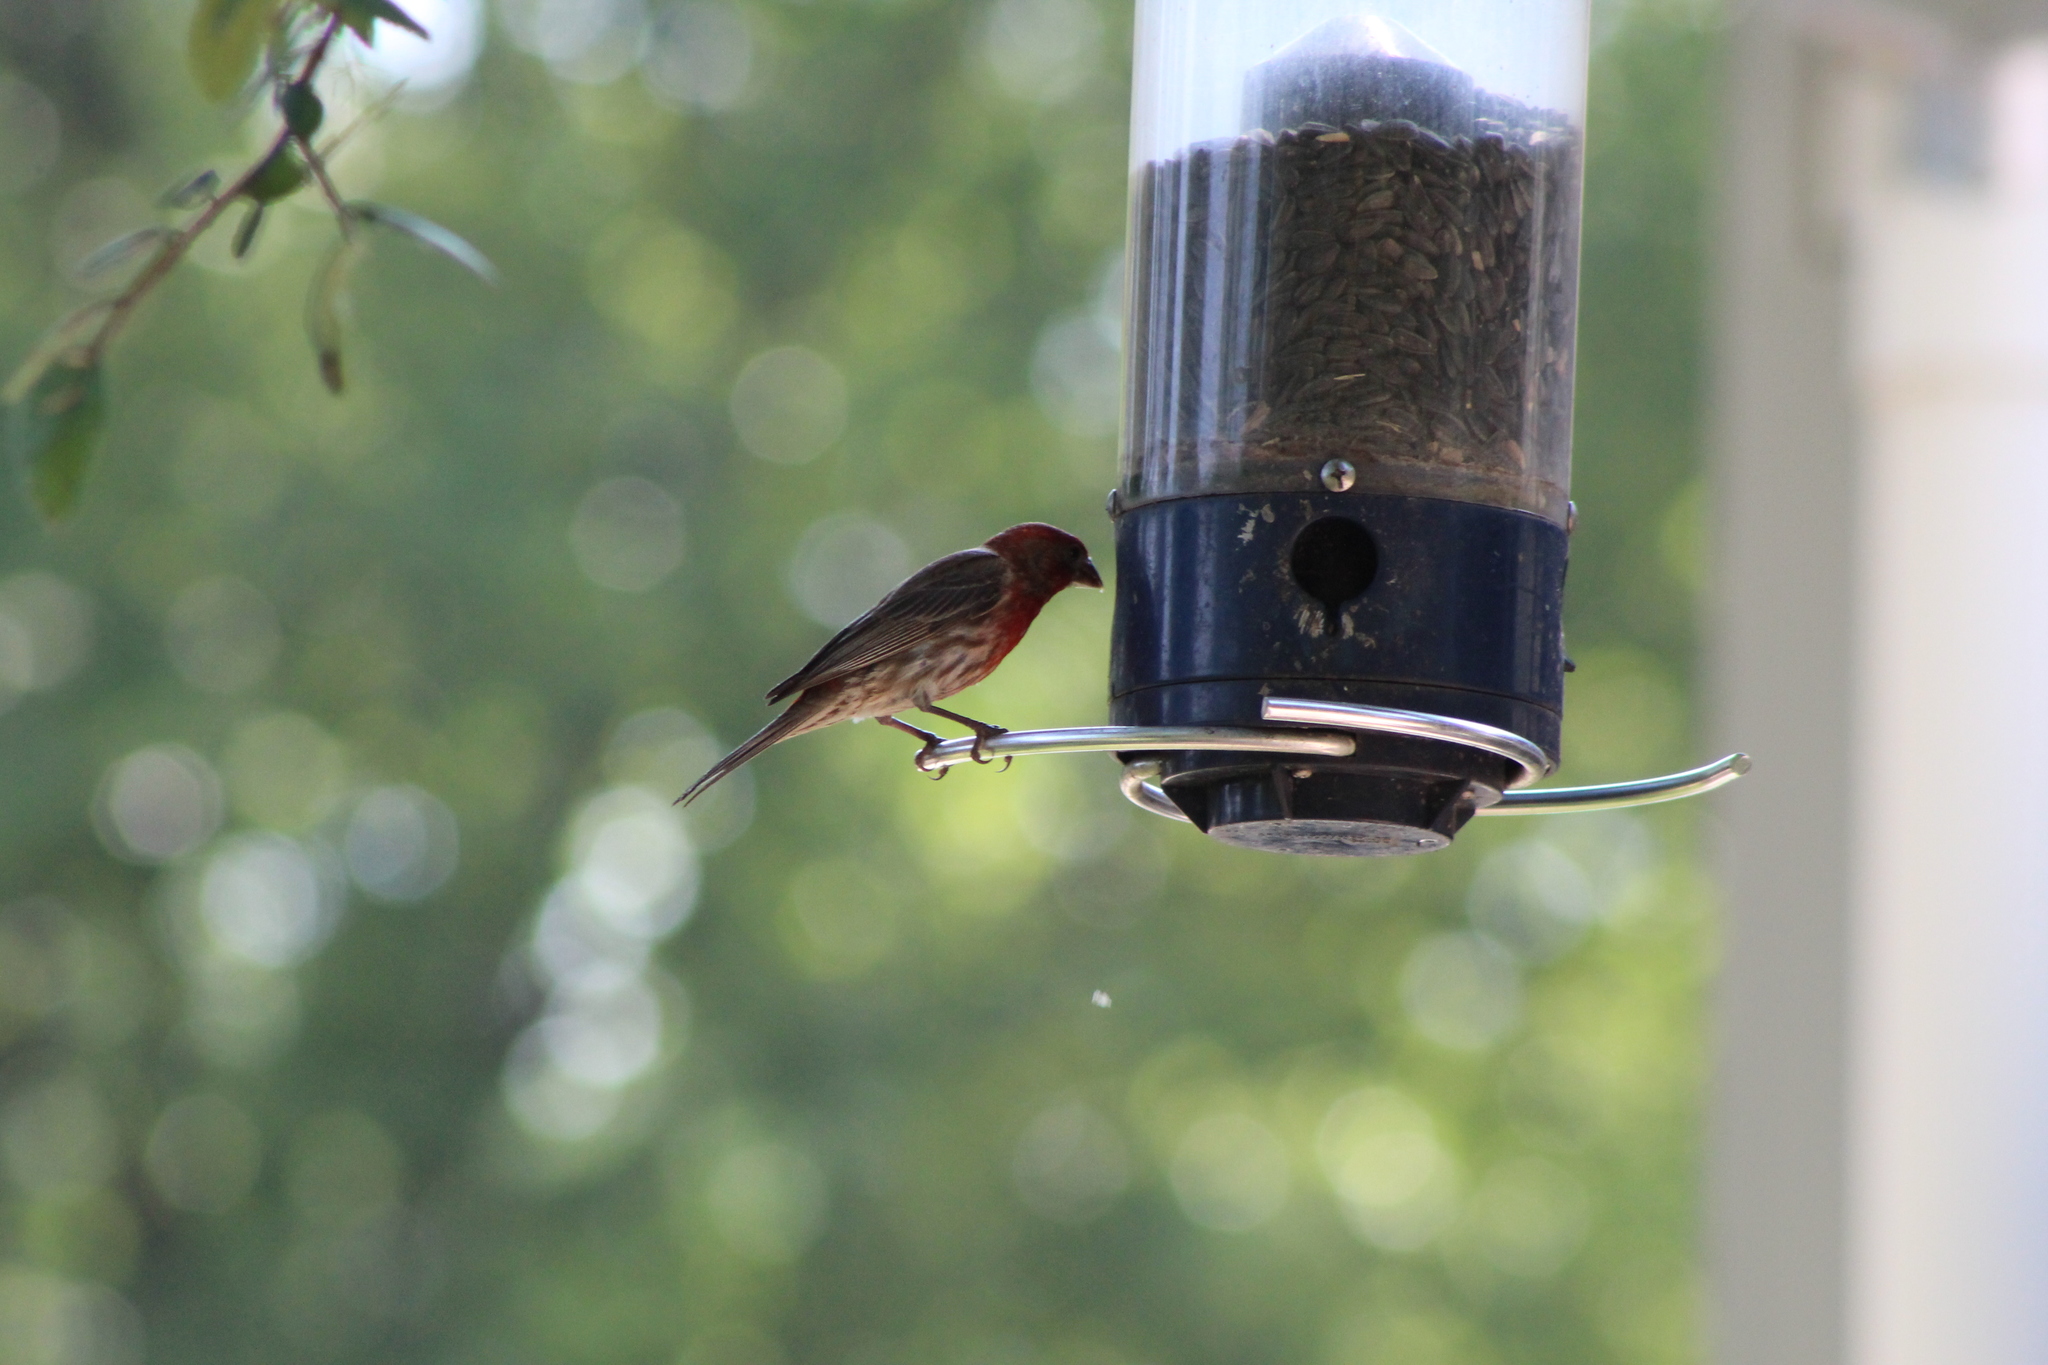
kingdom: Animalia
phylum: Chordata
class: Aves
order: Passeriformes
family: Fringillidae
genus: Haemorhous
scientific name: Haemorhous mexicanus
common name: House finch
